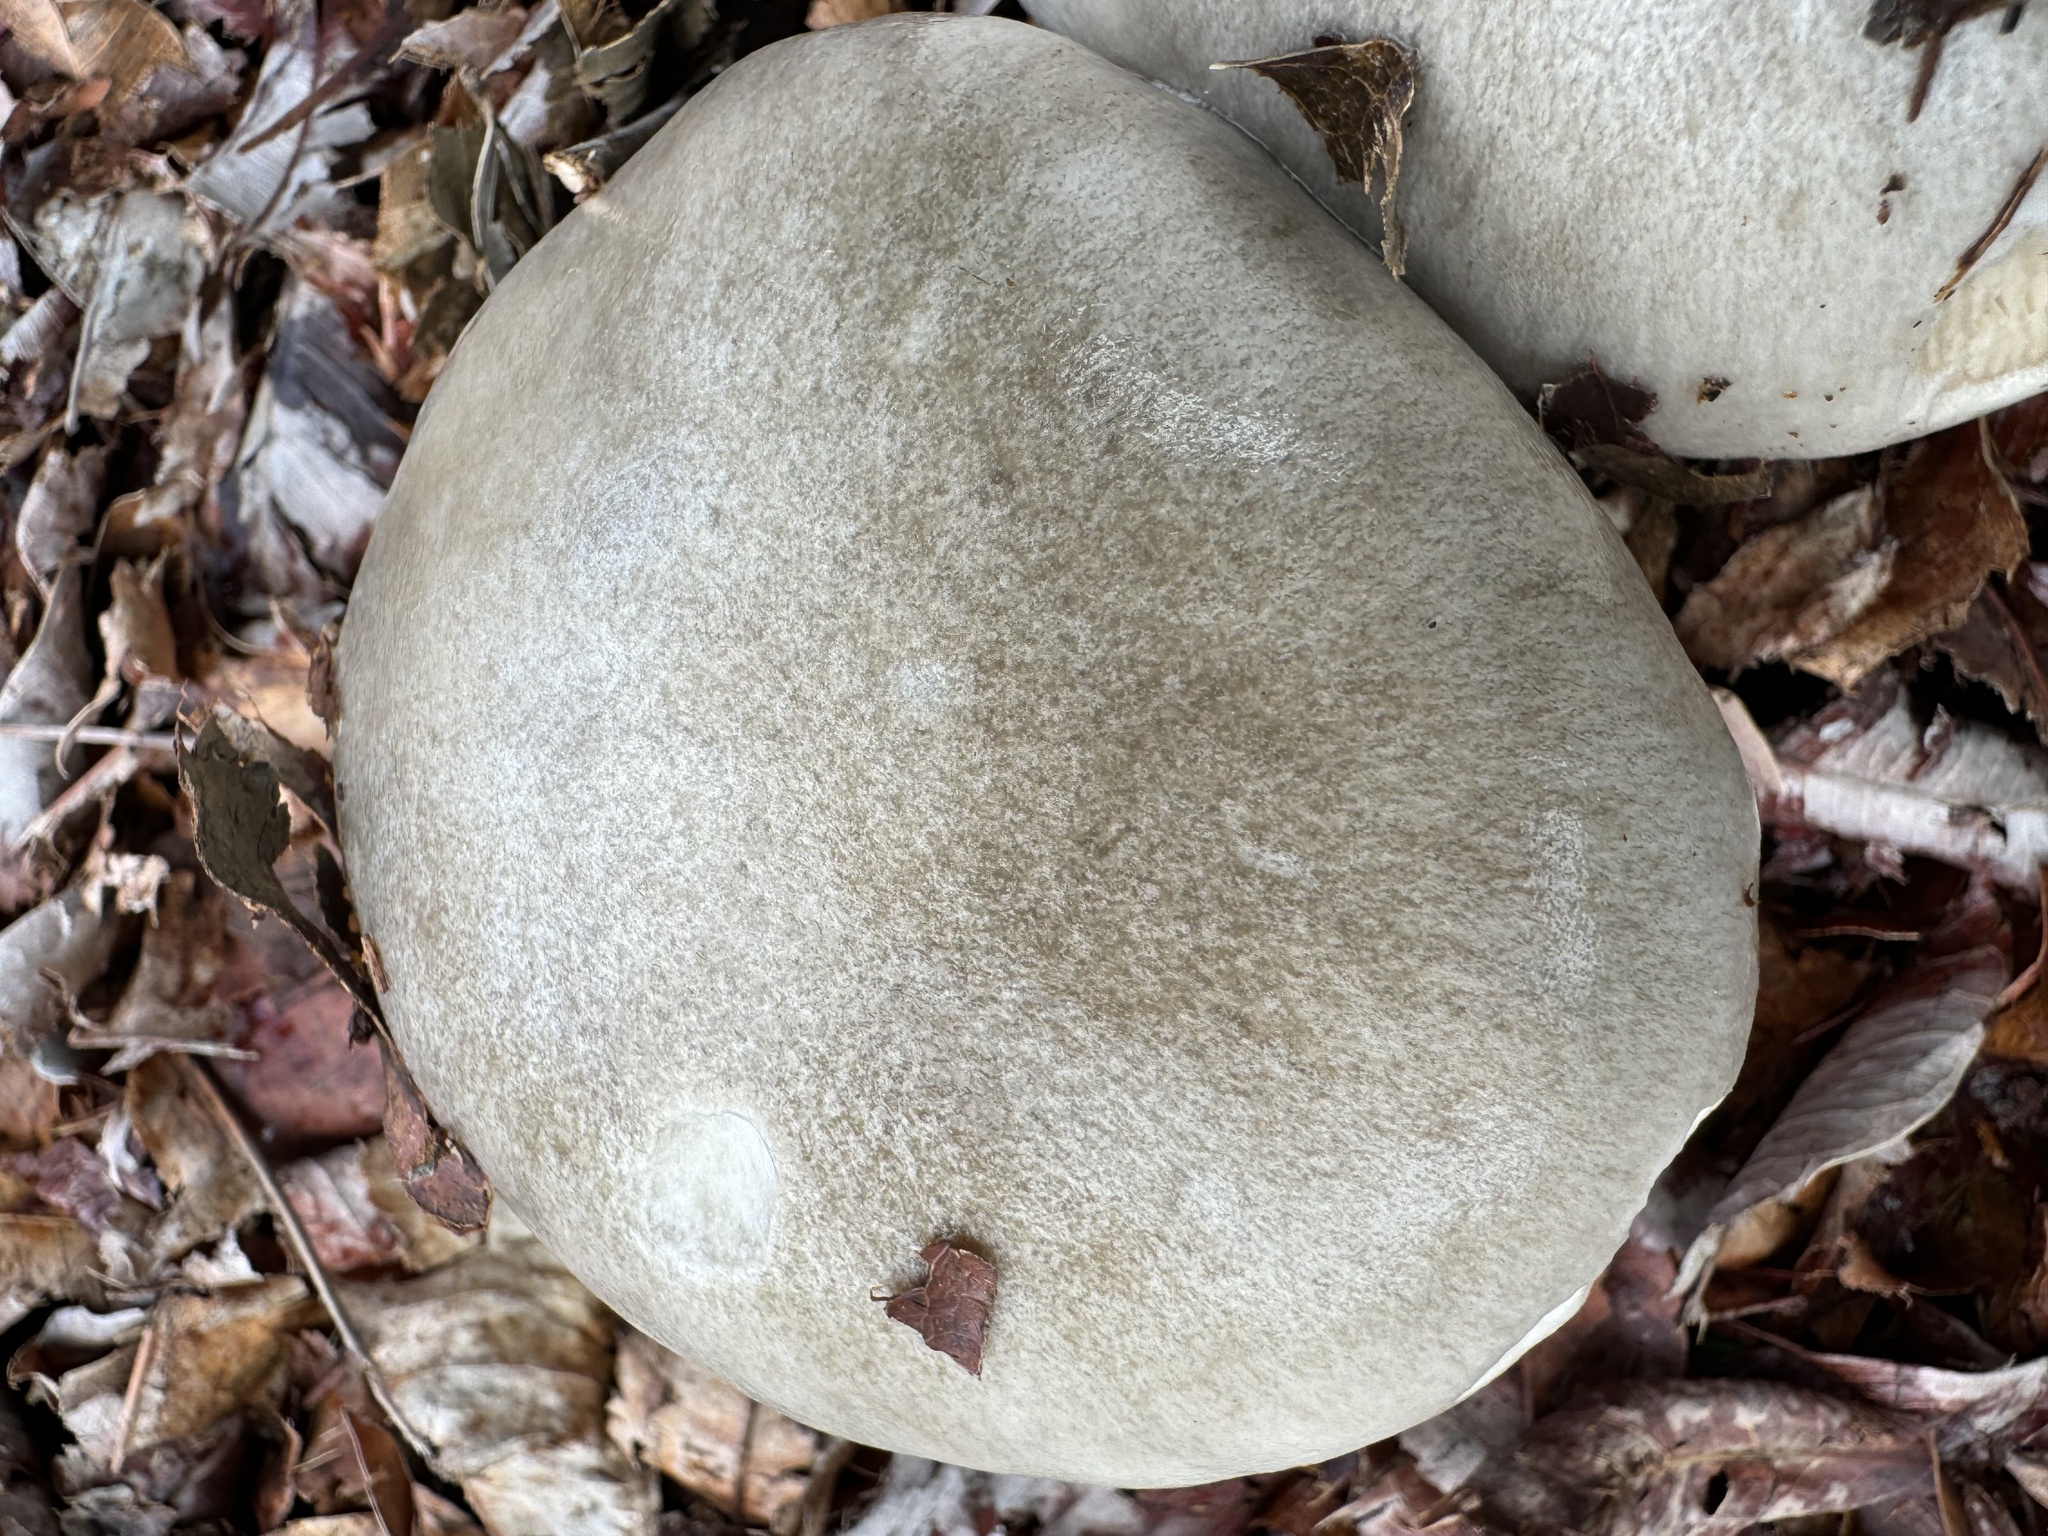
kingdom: Fungi
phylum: Basidiomycota
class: Agaricomycetes
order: Agaricales
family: Pluteaceae
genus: Volvopluteus
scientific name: Volvopluteus gloiocephalus
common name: Stubble rosegill
